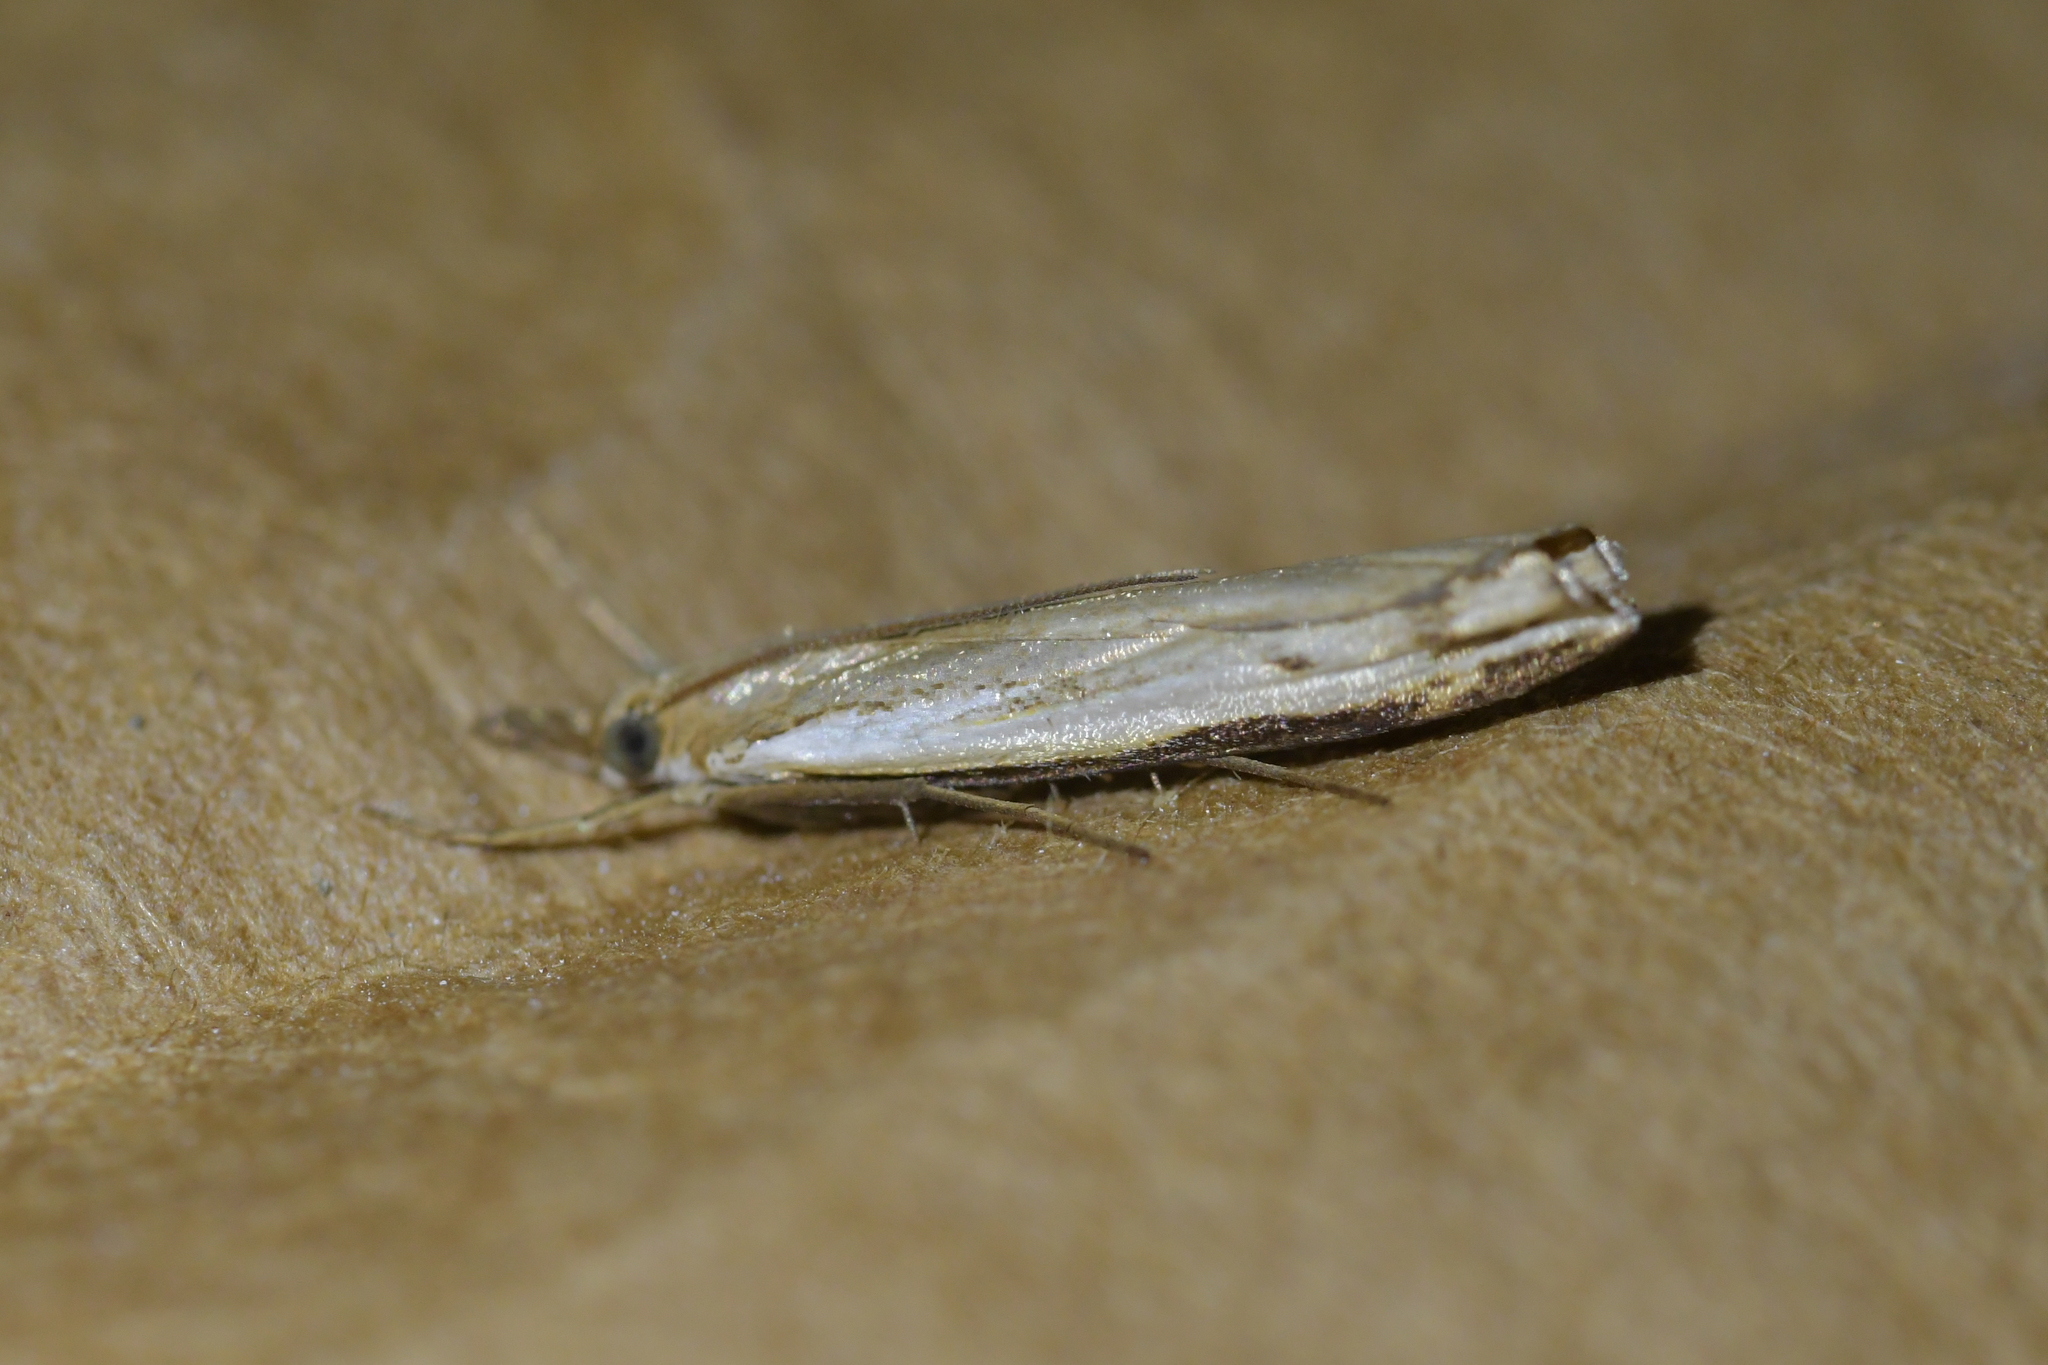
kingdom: Animalia
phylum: Arthropoda
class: Insecta
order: Lepidoptera
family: Crambidae
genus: Orocrambus
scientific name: Orocrambus flexuosellus
